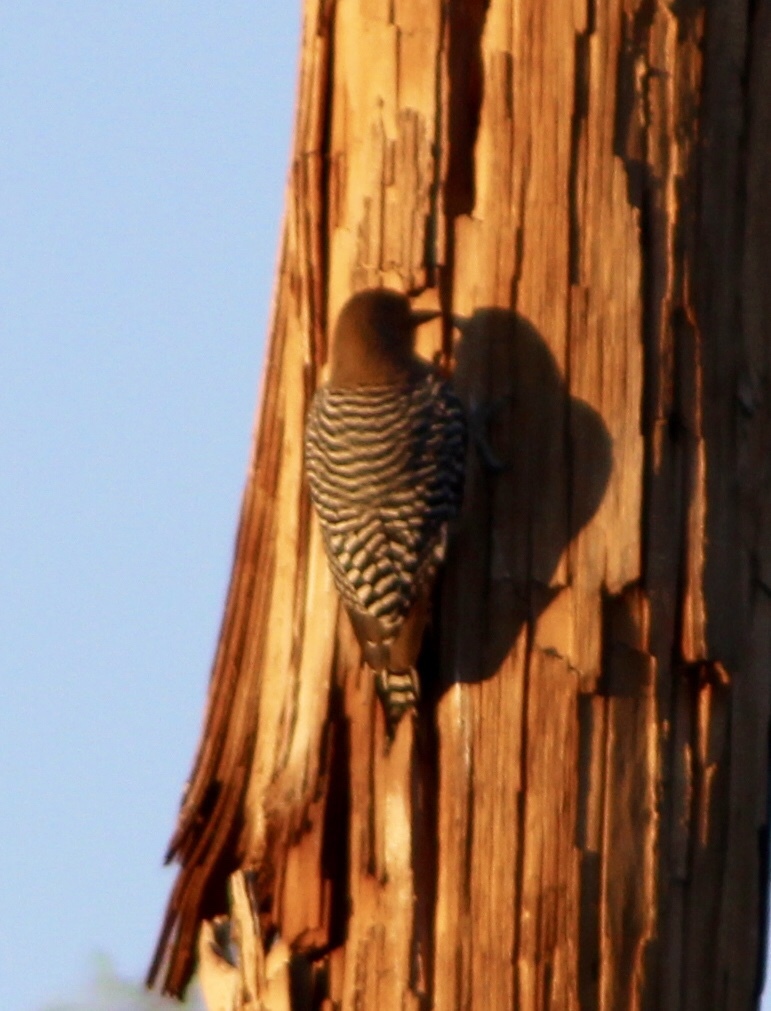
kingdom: Animalia
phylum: Chordata
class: Aves
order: Piciformes
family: Picidae
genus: Melanerpes
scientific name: Melanerpes uropygialis
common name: Gila woodpecker
